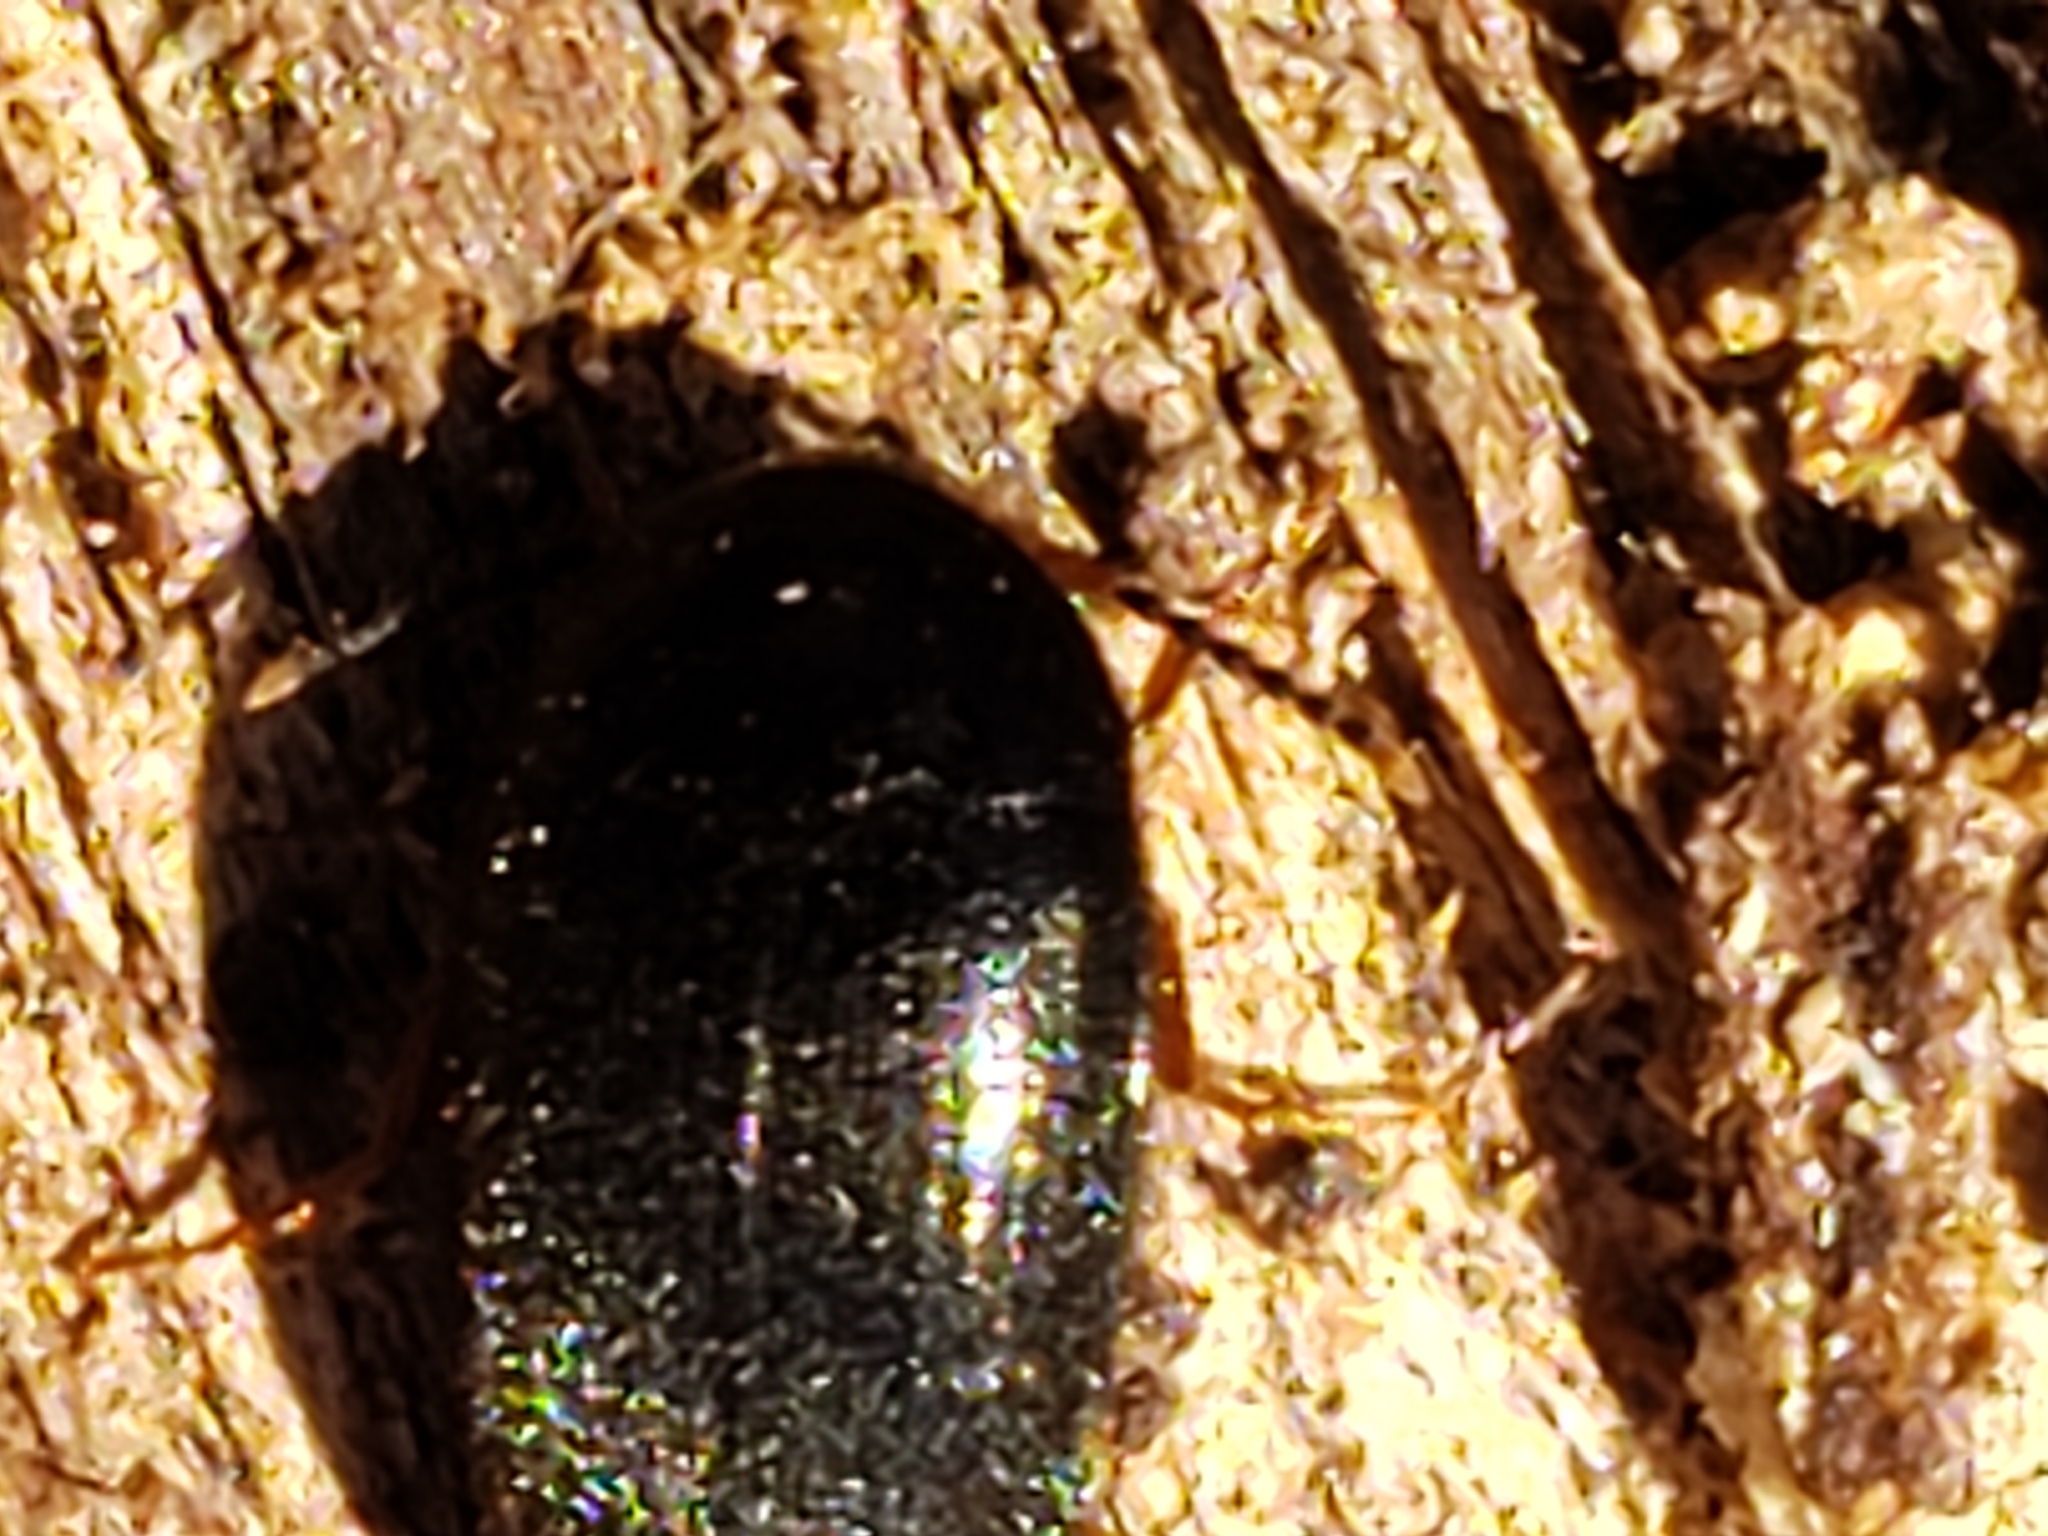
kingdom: Animalia
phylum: Arthropoda
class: Insecta
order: Coleoptera
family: Tetratomidae
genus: Eustrophopsis
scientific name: Eustrophopsis bicolor
